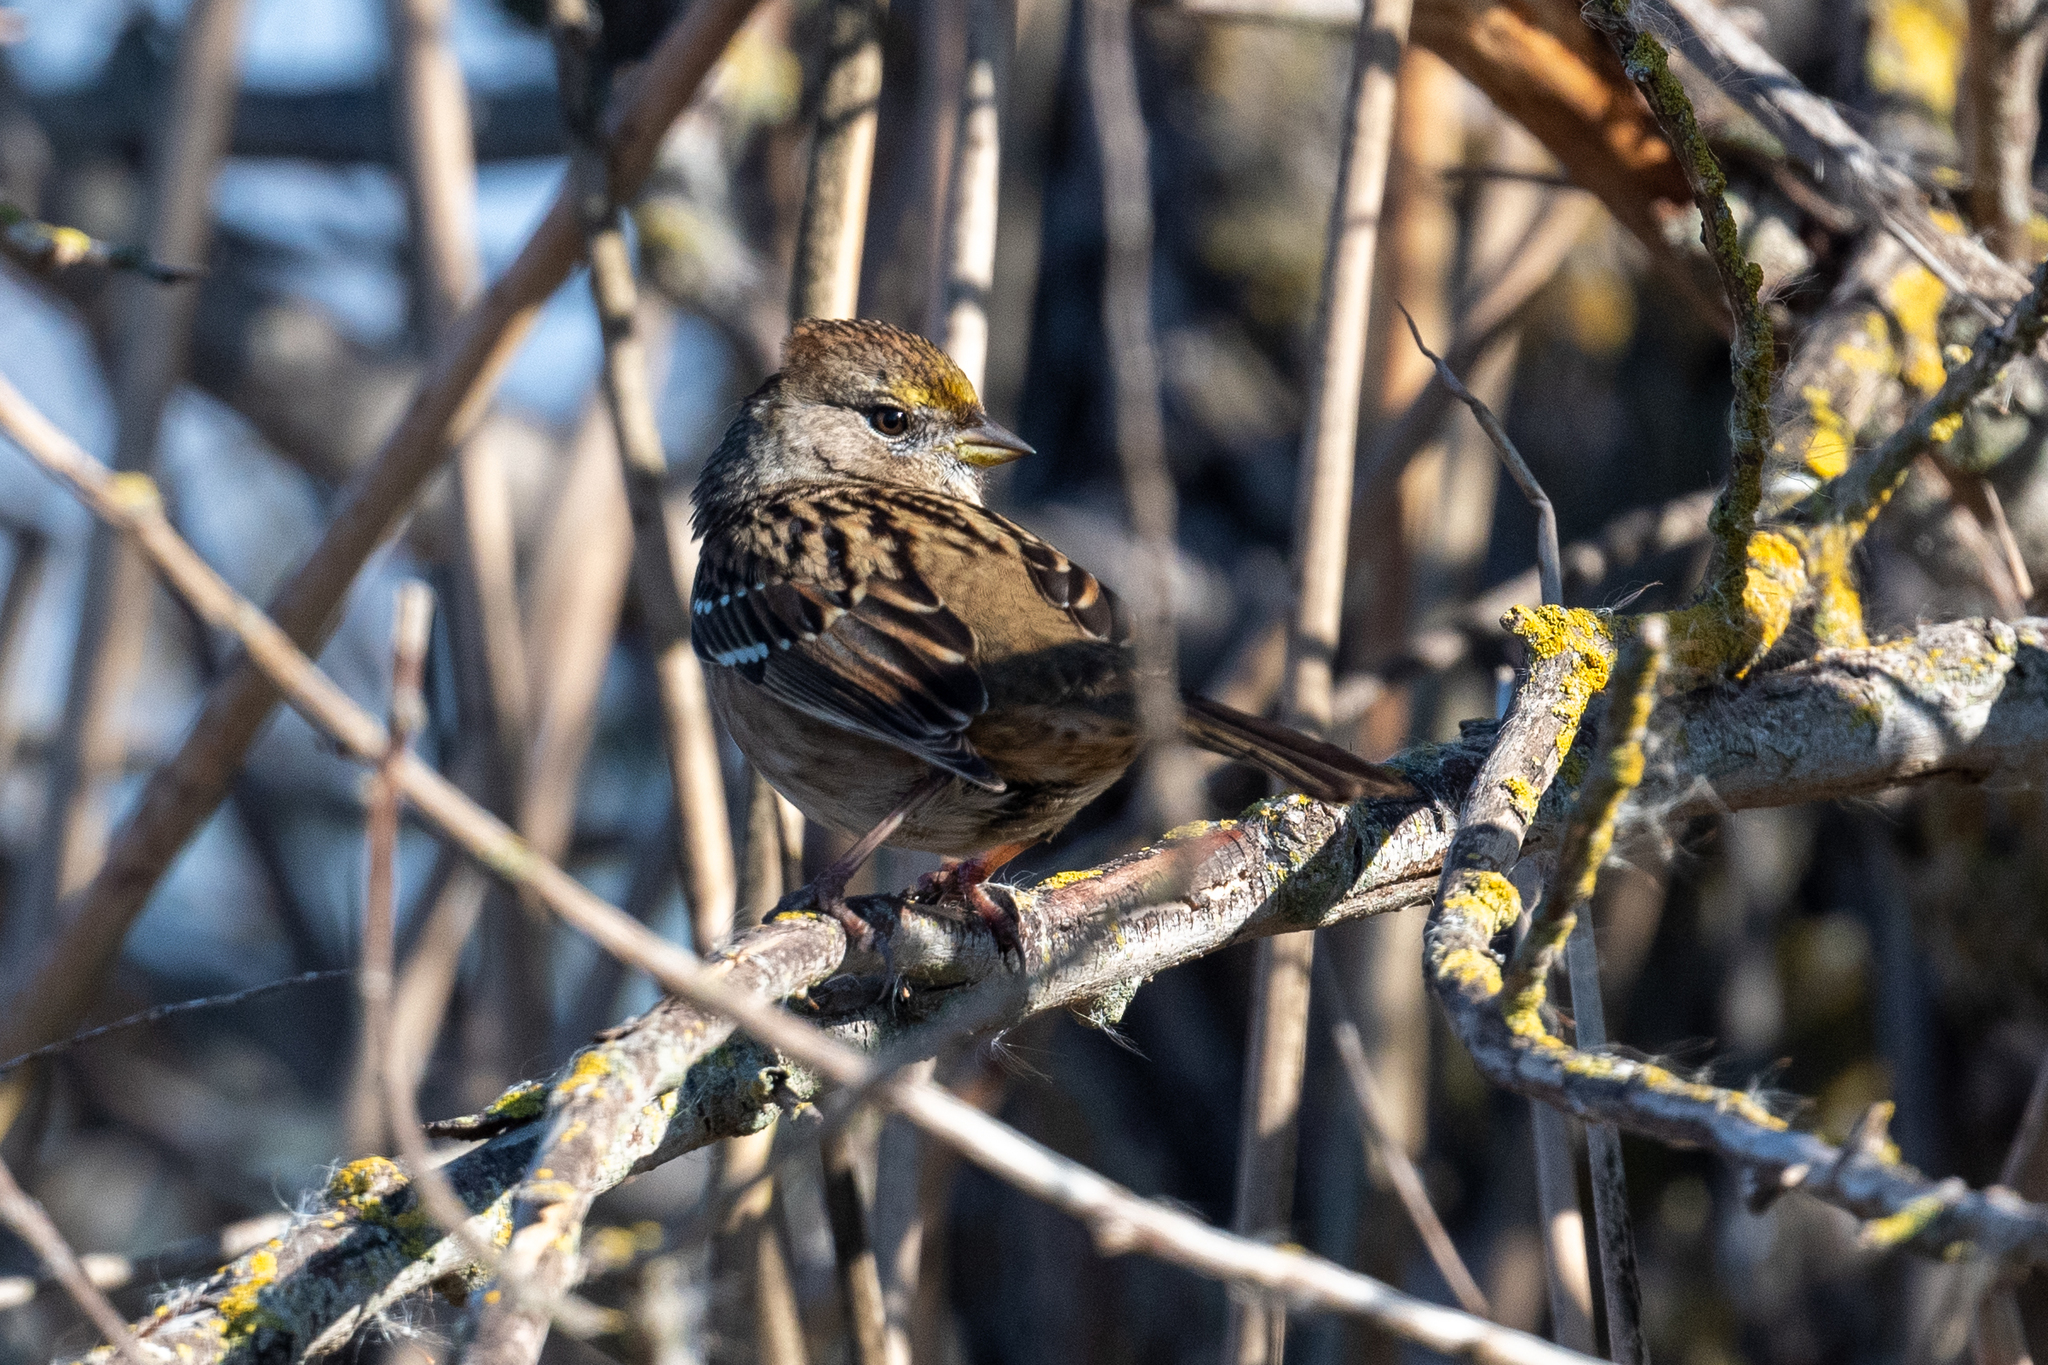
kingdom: Animalia
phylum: Chordata
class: Aves
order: Passeriformes
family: Passerellidae
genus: Zonotrichia
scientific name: Zonotrichia atricapilla
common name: Golden-crowned sparrow
